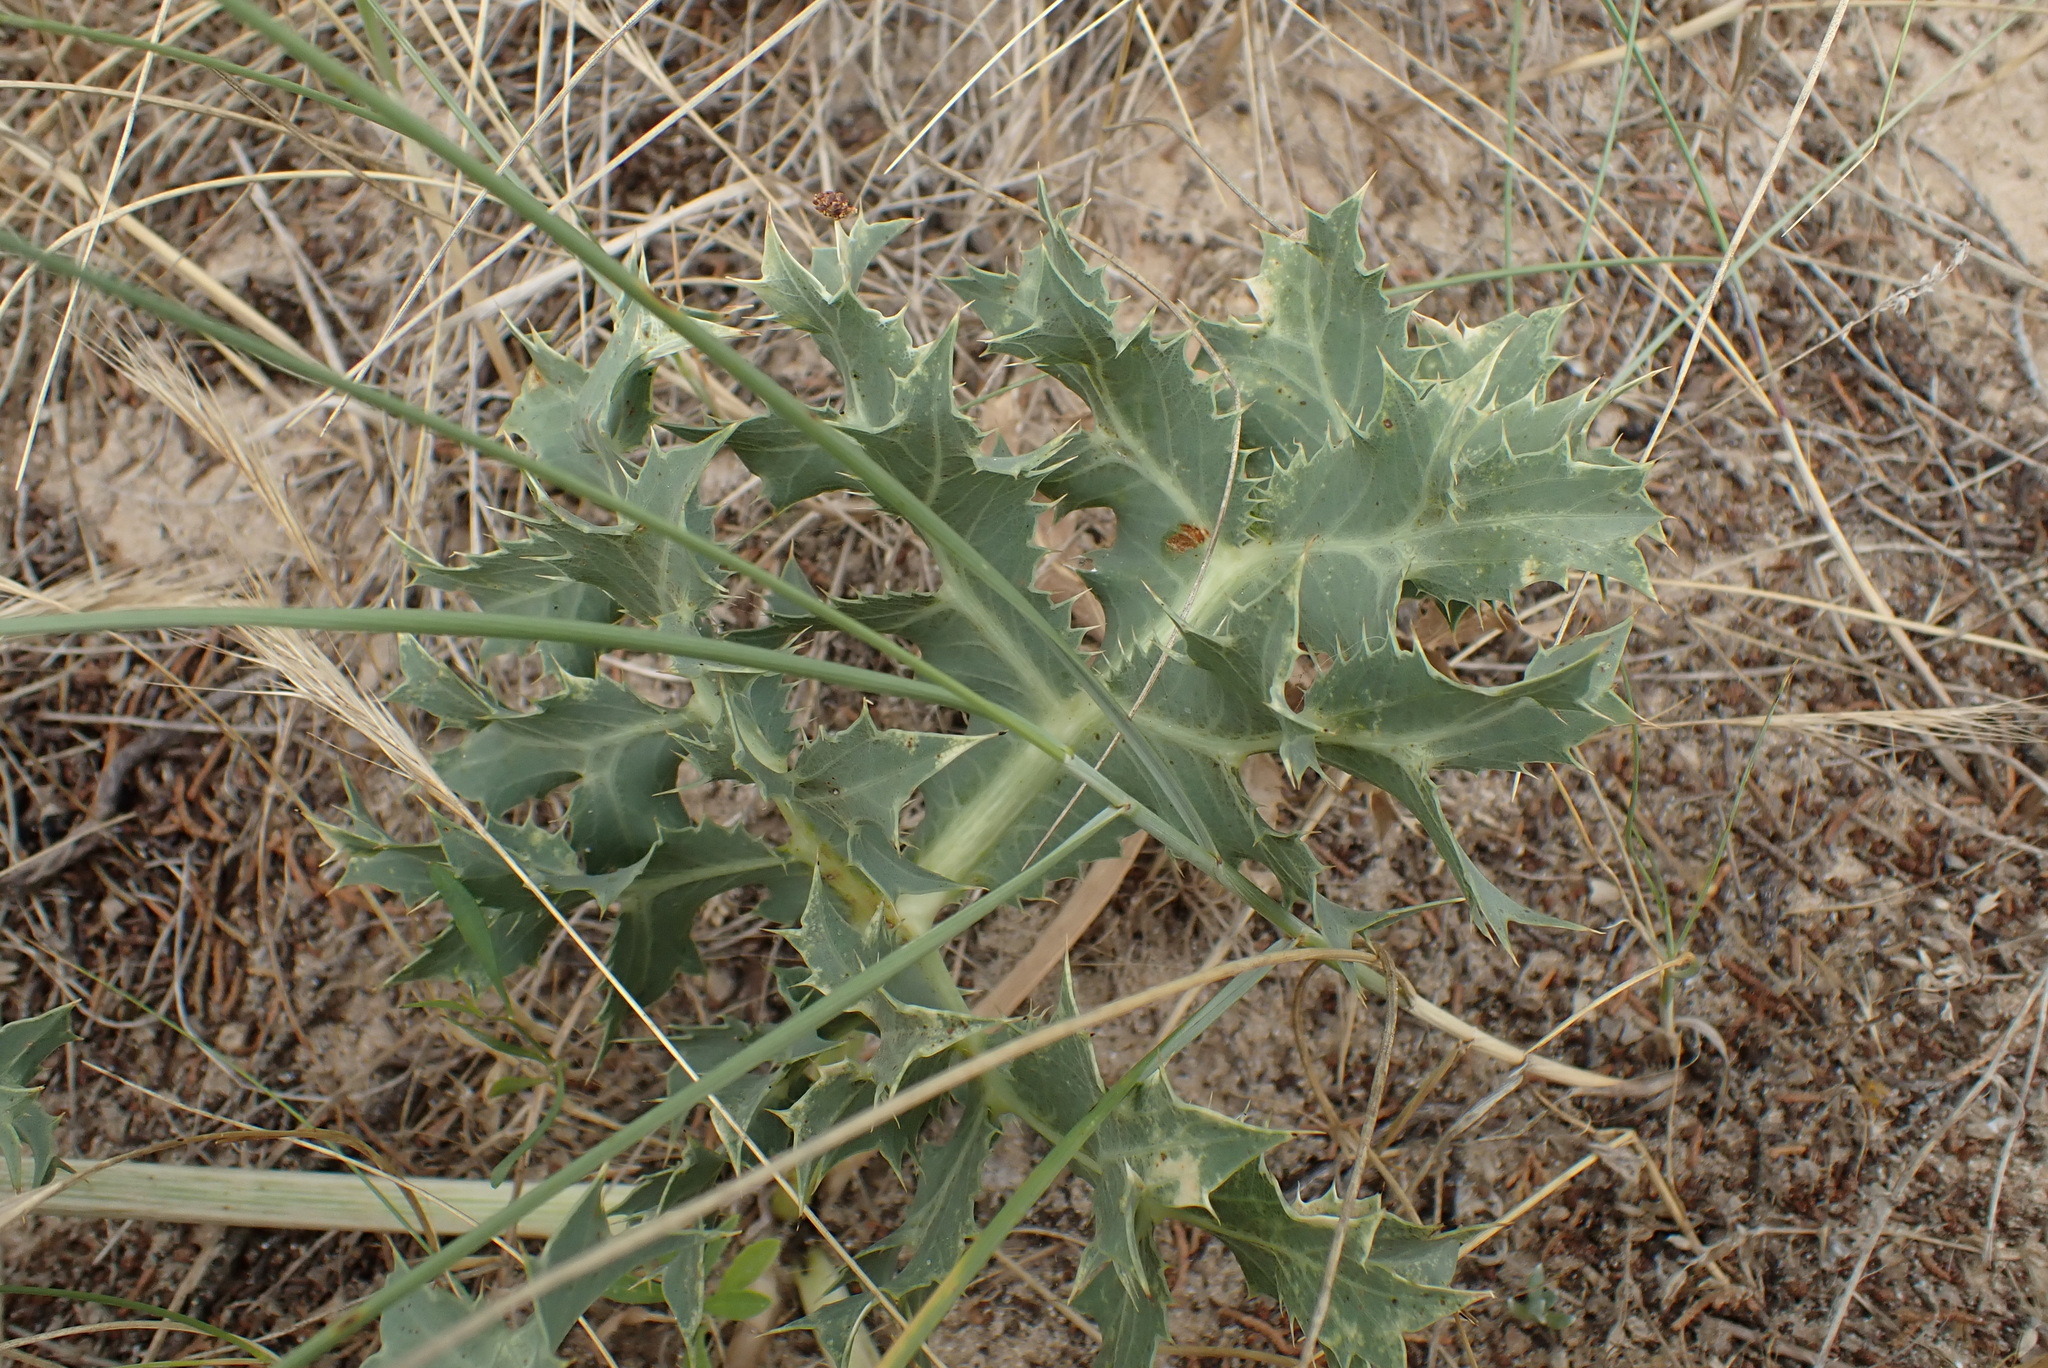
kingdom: Plantae
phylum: Tracheophyta
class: Magnoliopsida
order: Apiales
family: Apiaceae
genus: Eryngium
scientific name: Eryngium campestre
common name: Field eryngo
